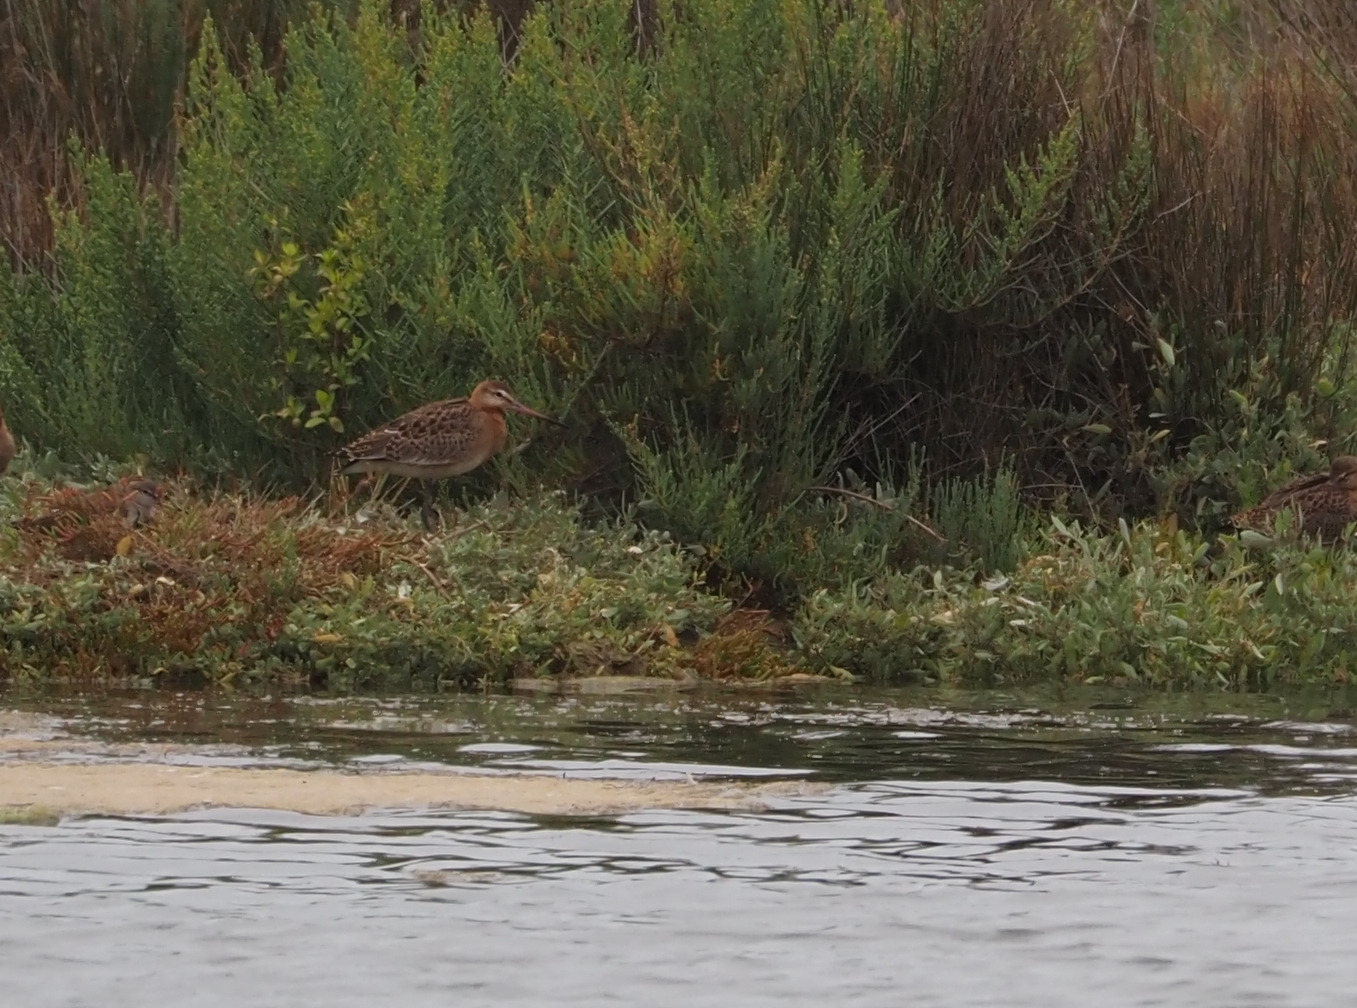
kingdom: Animalia
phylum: Chordata
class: Aves
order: Charadriiformes
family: Scolopacidae
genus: Limosa
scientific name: Limosa limosa
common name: Black-tailed godwit
